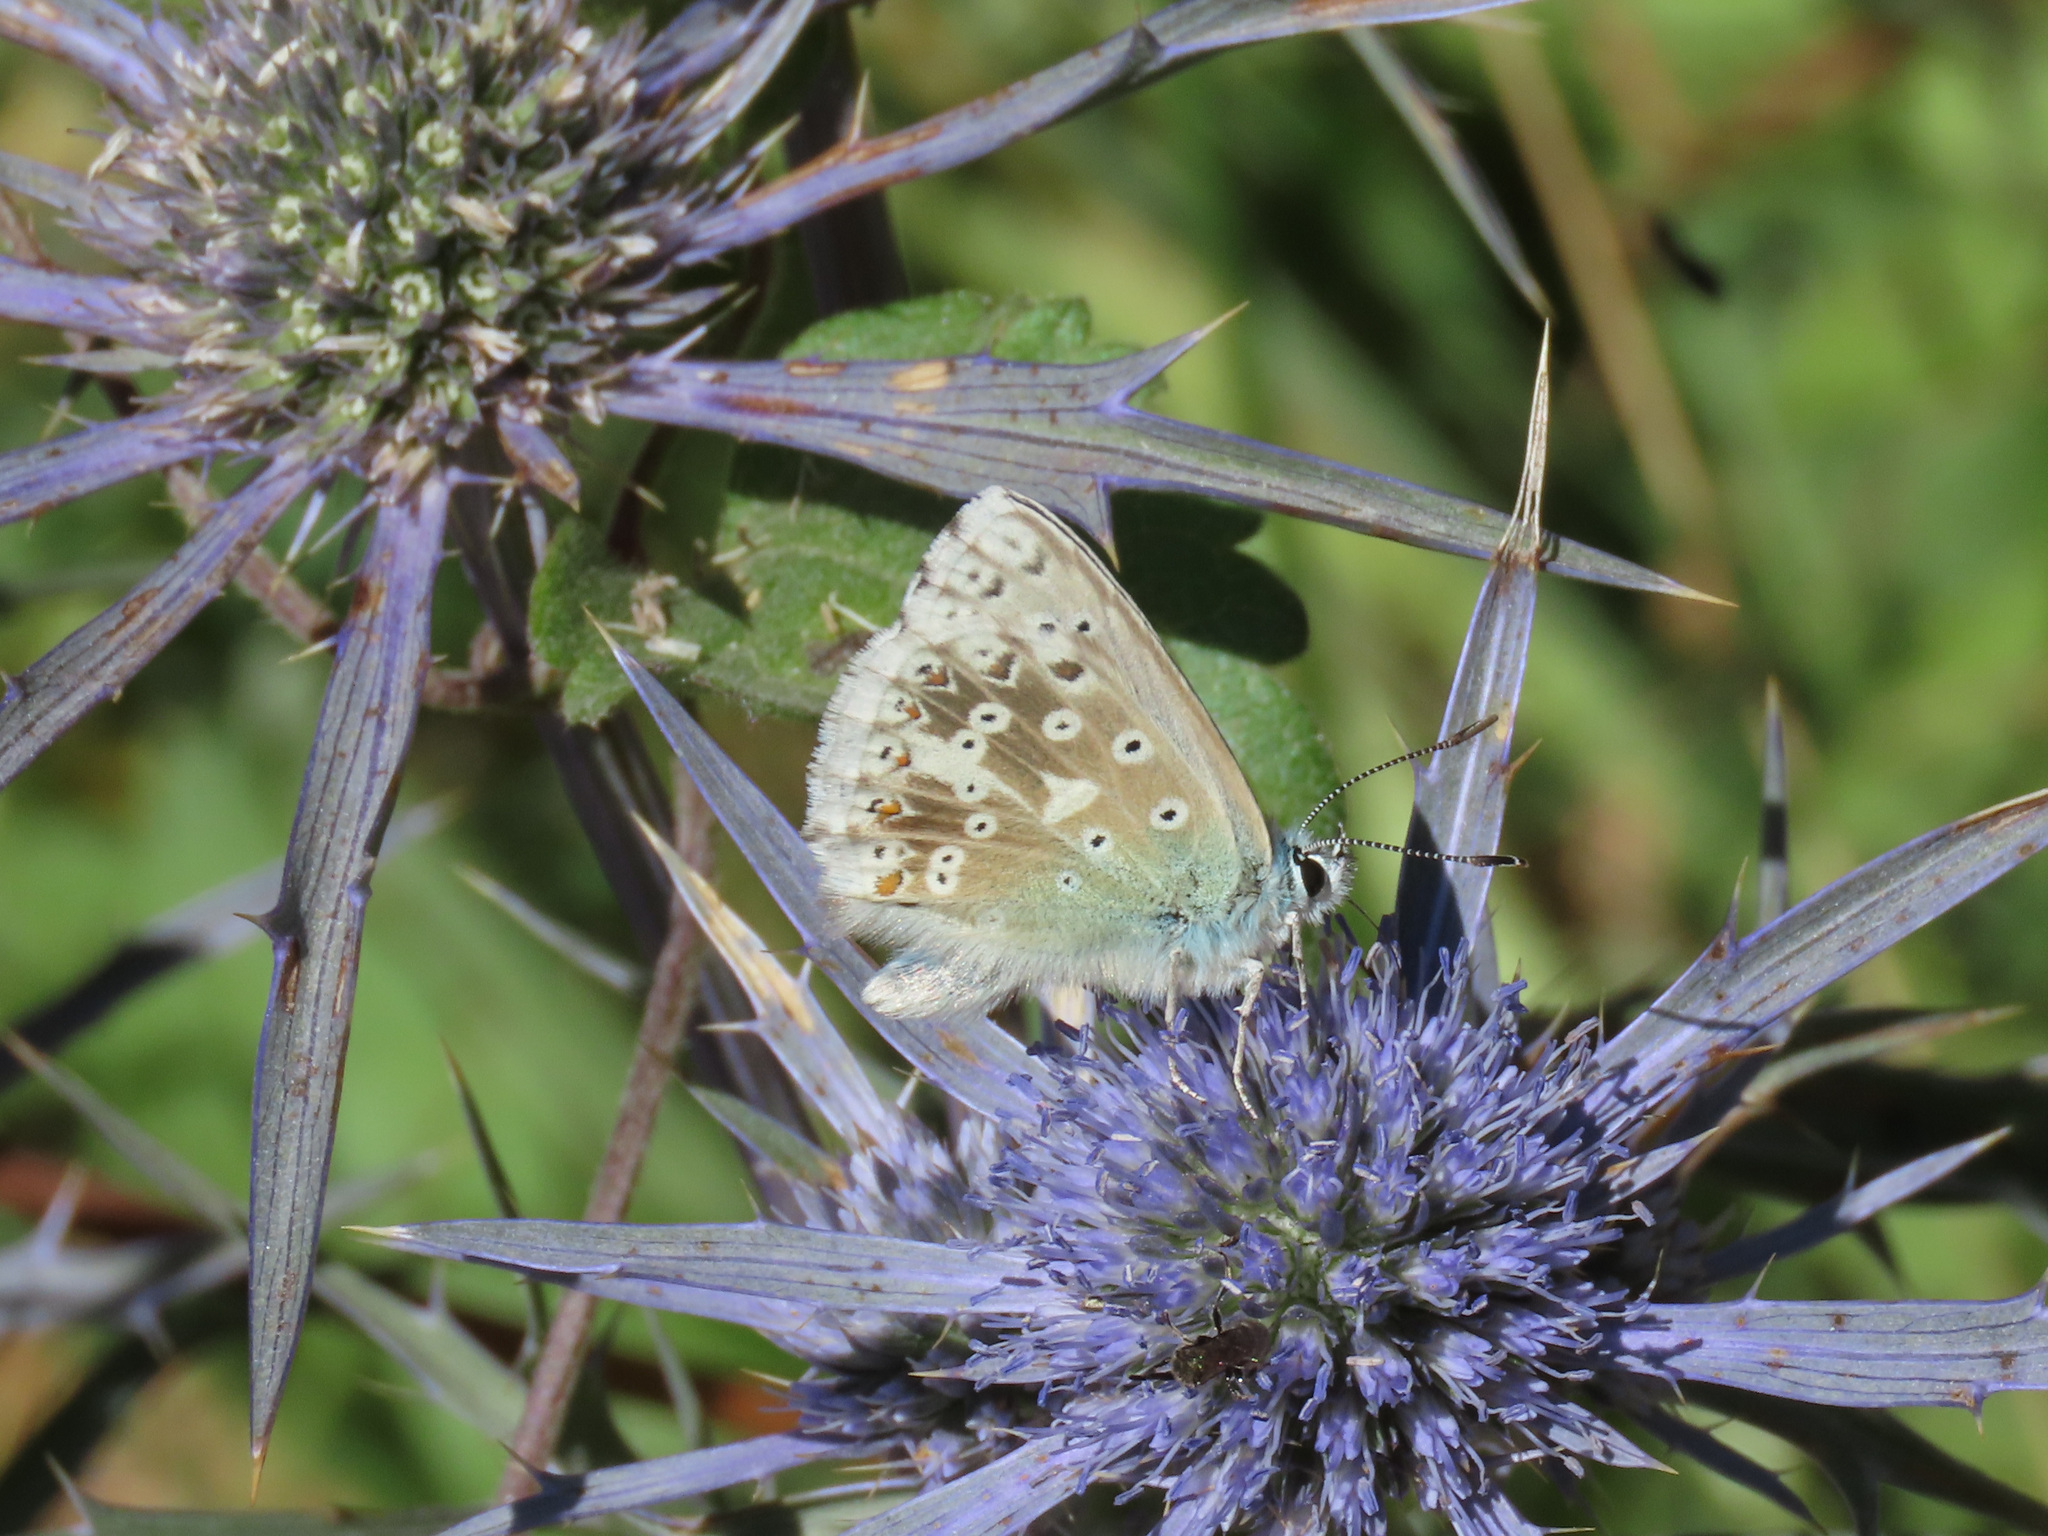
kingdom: Animalia
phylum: Arthropoda
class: Insecta
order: Lepidoptera
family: Lycaenidae
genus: Lysandra
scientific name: Lysandra coridon
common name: Chalkhill blue
